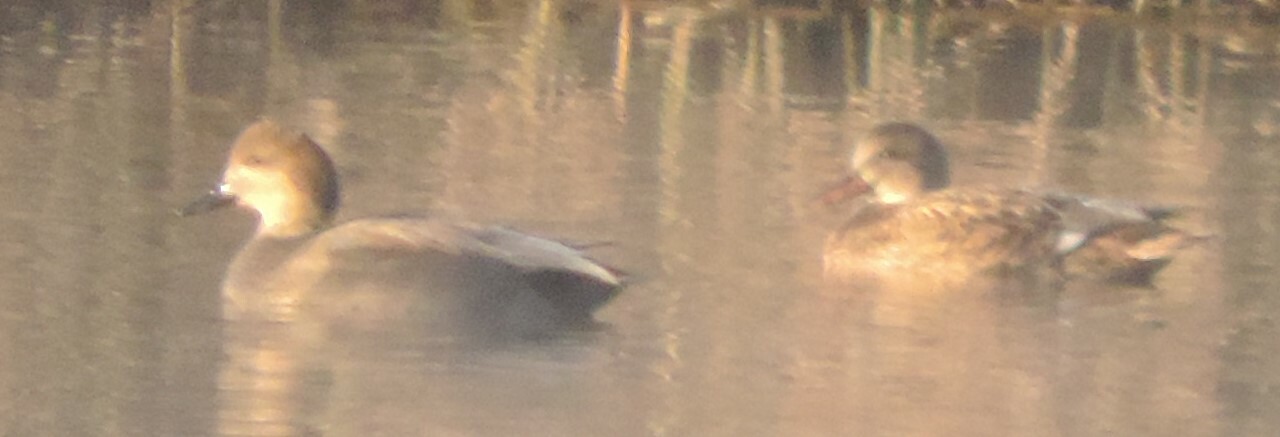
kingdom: Animalia
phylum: Chordata
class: Aves
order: Anseriformes
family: Anatidae
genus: Mareca
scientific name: Mareca strepera
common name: Gadwall
